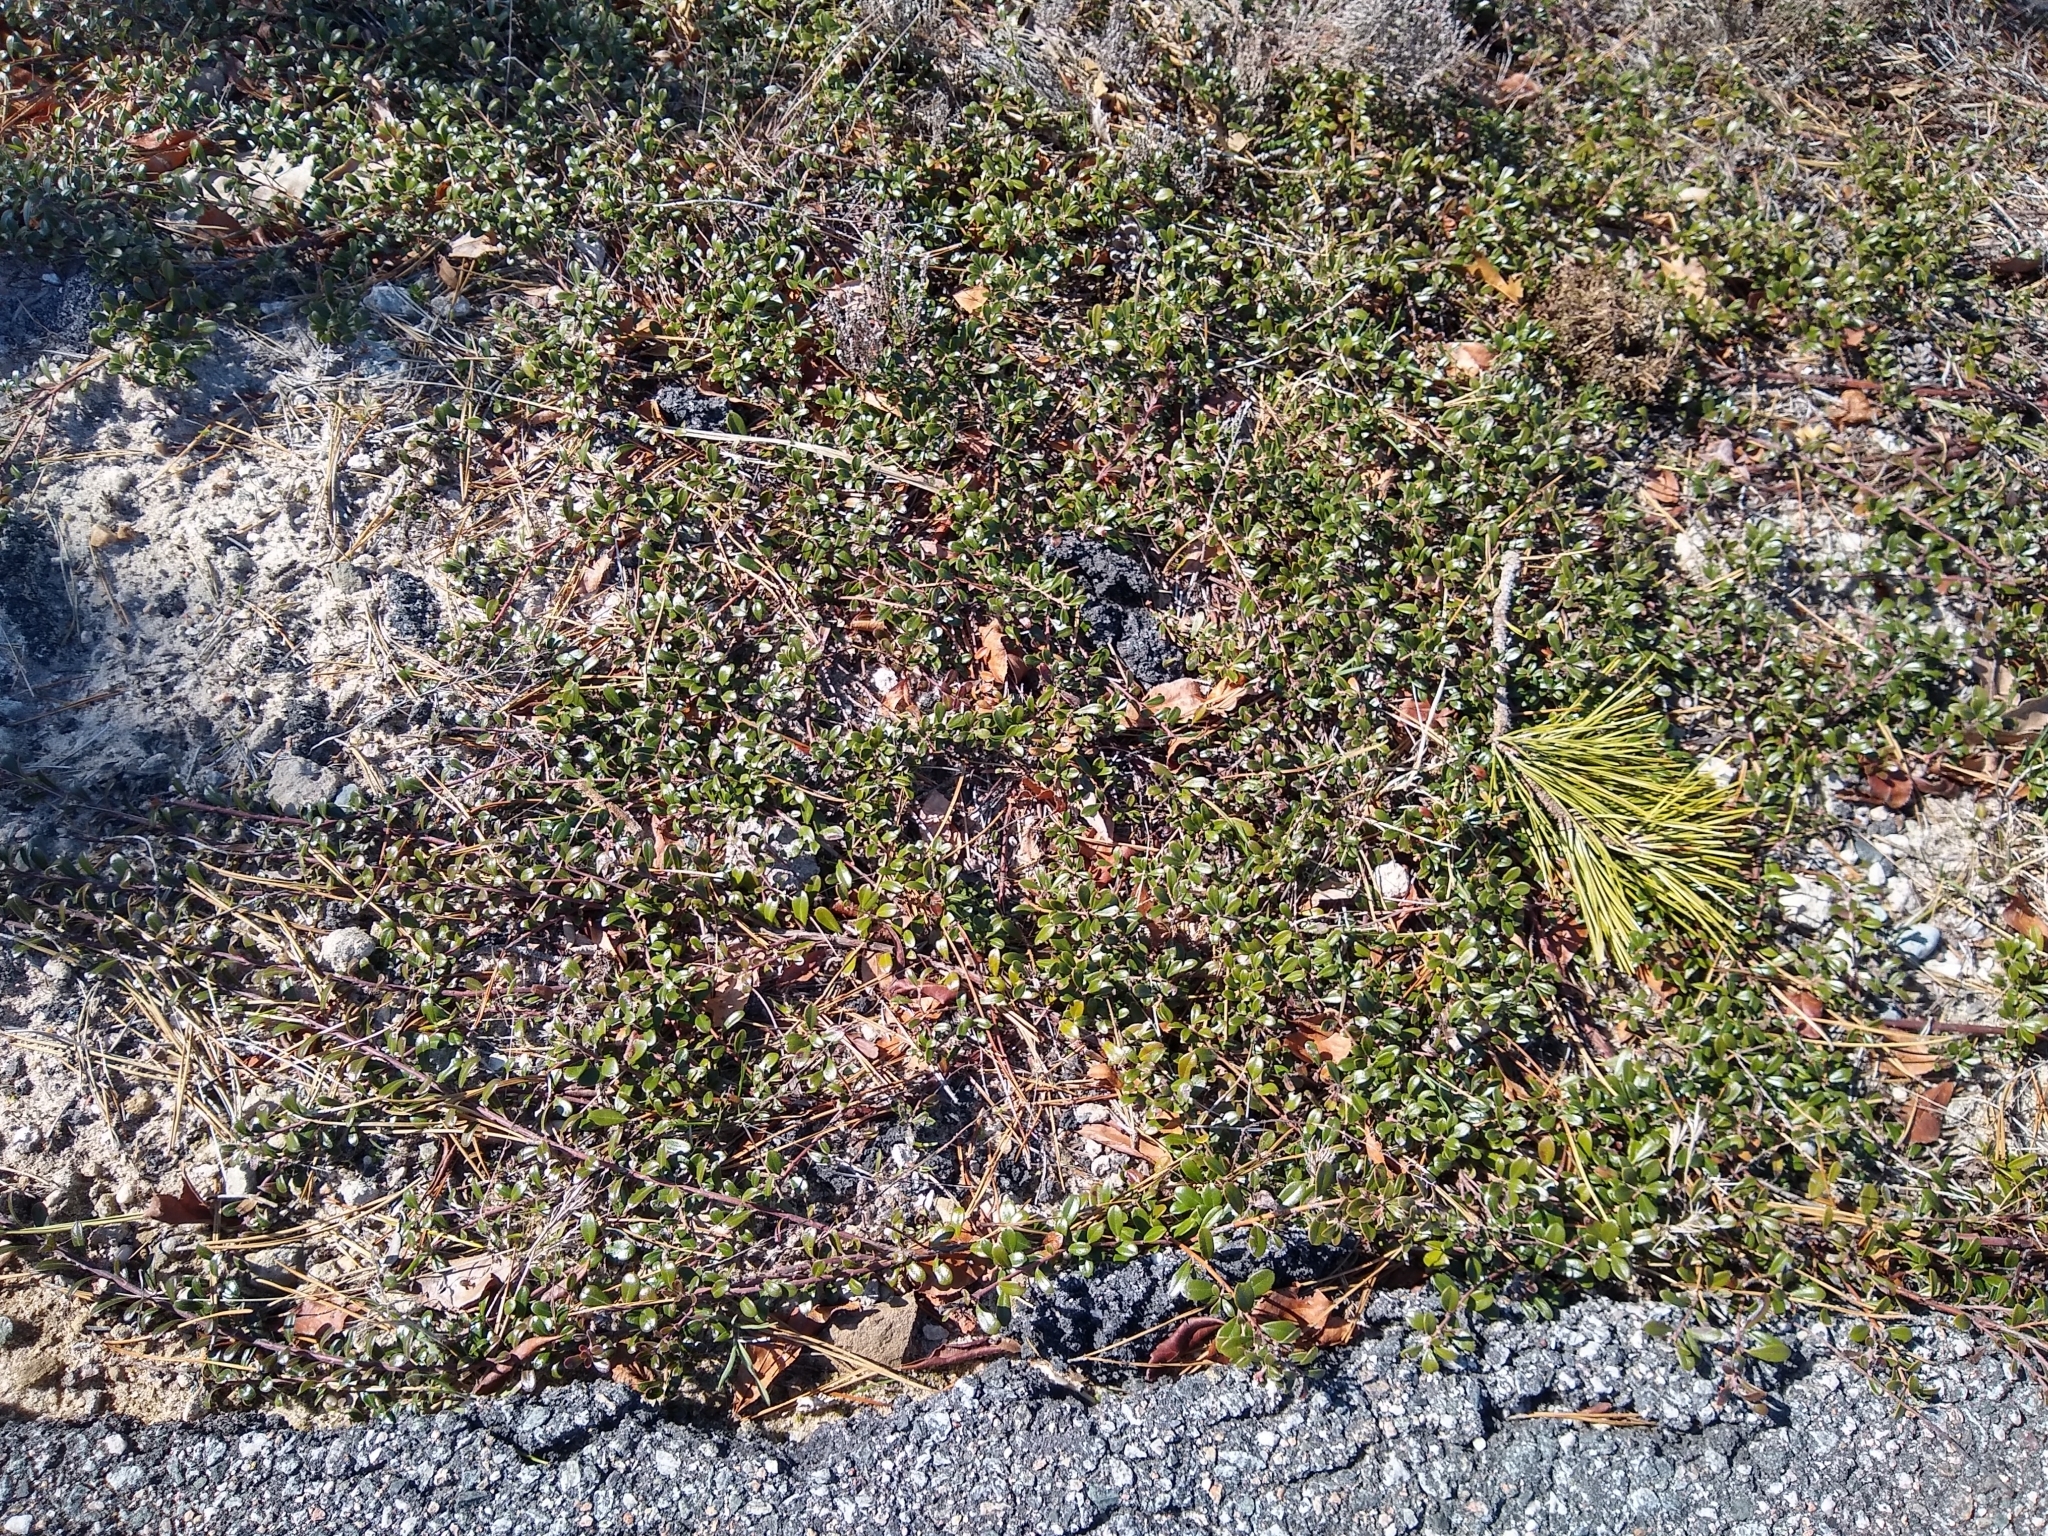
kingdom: Plantae
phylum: Tracheophyta
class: Magnoliopsida
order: Ericales
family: Ericaceae
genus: Arctostaphylos
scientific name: Arctostaphylos uva-ursi
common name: Bearberry
